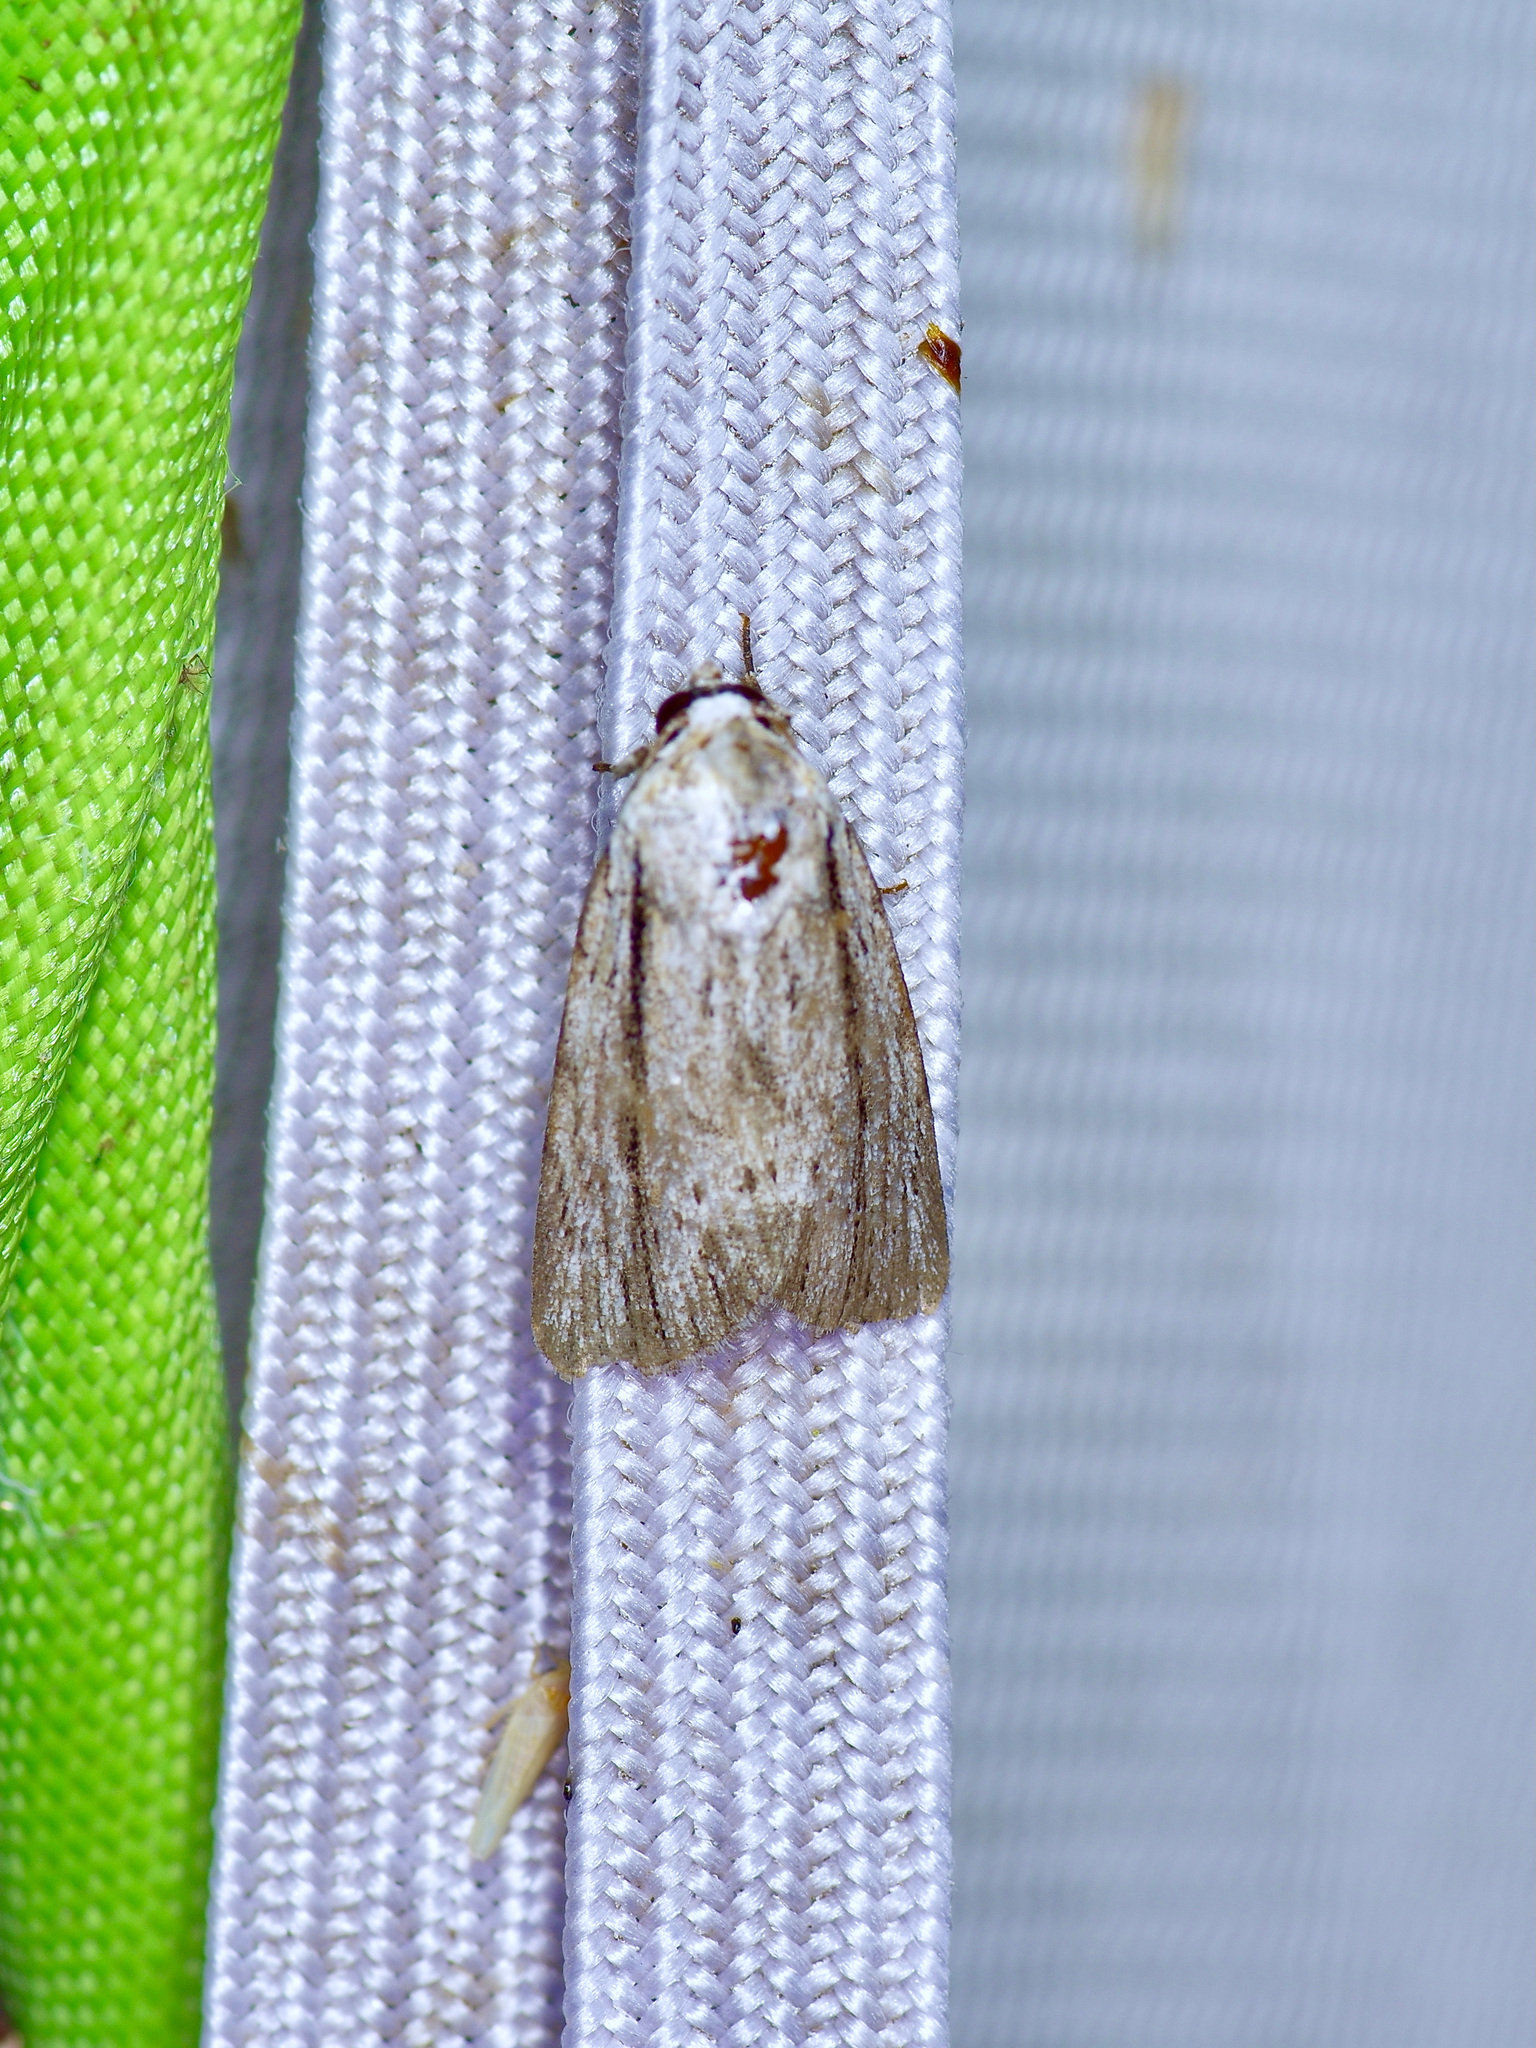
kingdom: Animalia
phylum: Arthropoda
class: Insecta
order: Lepidoptera
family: Noctuidae
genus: Catabenoides
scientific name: Catabenoides terminellus
